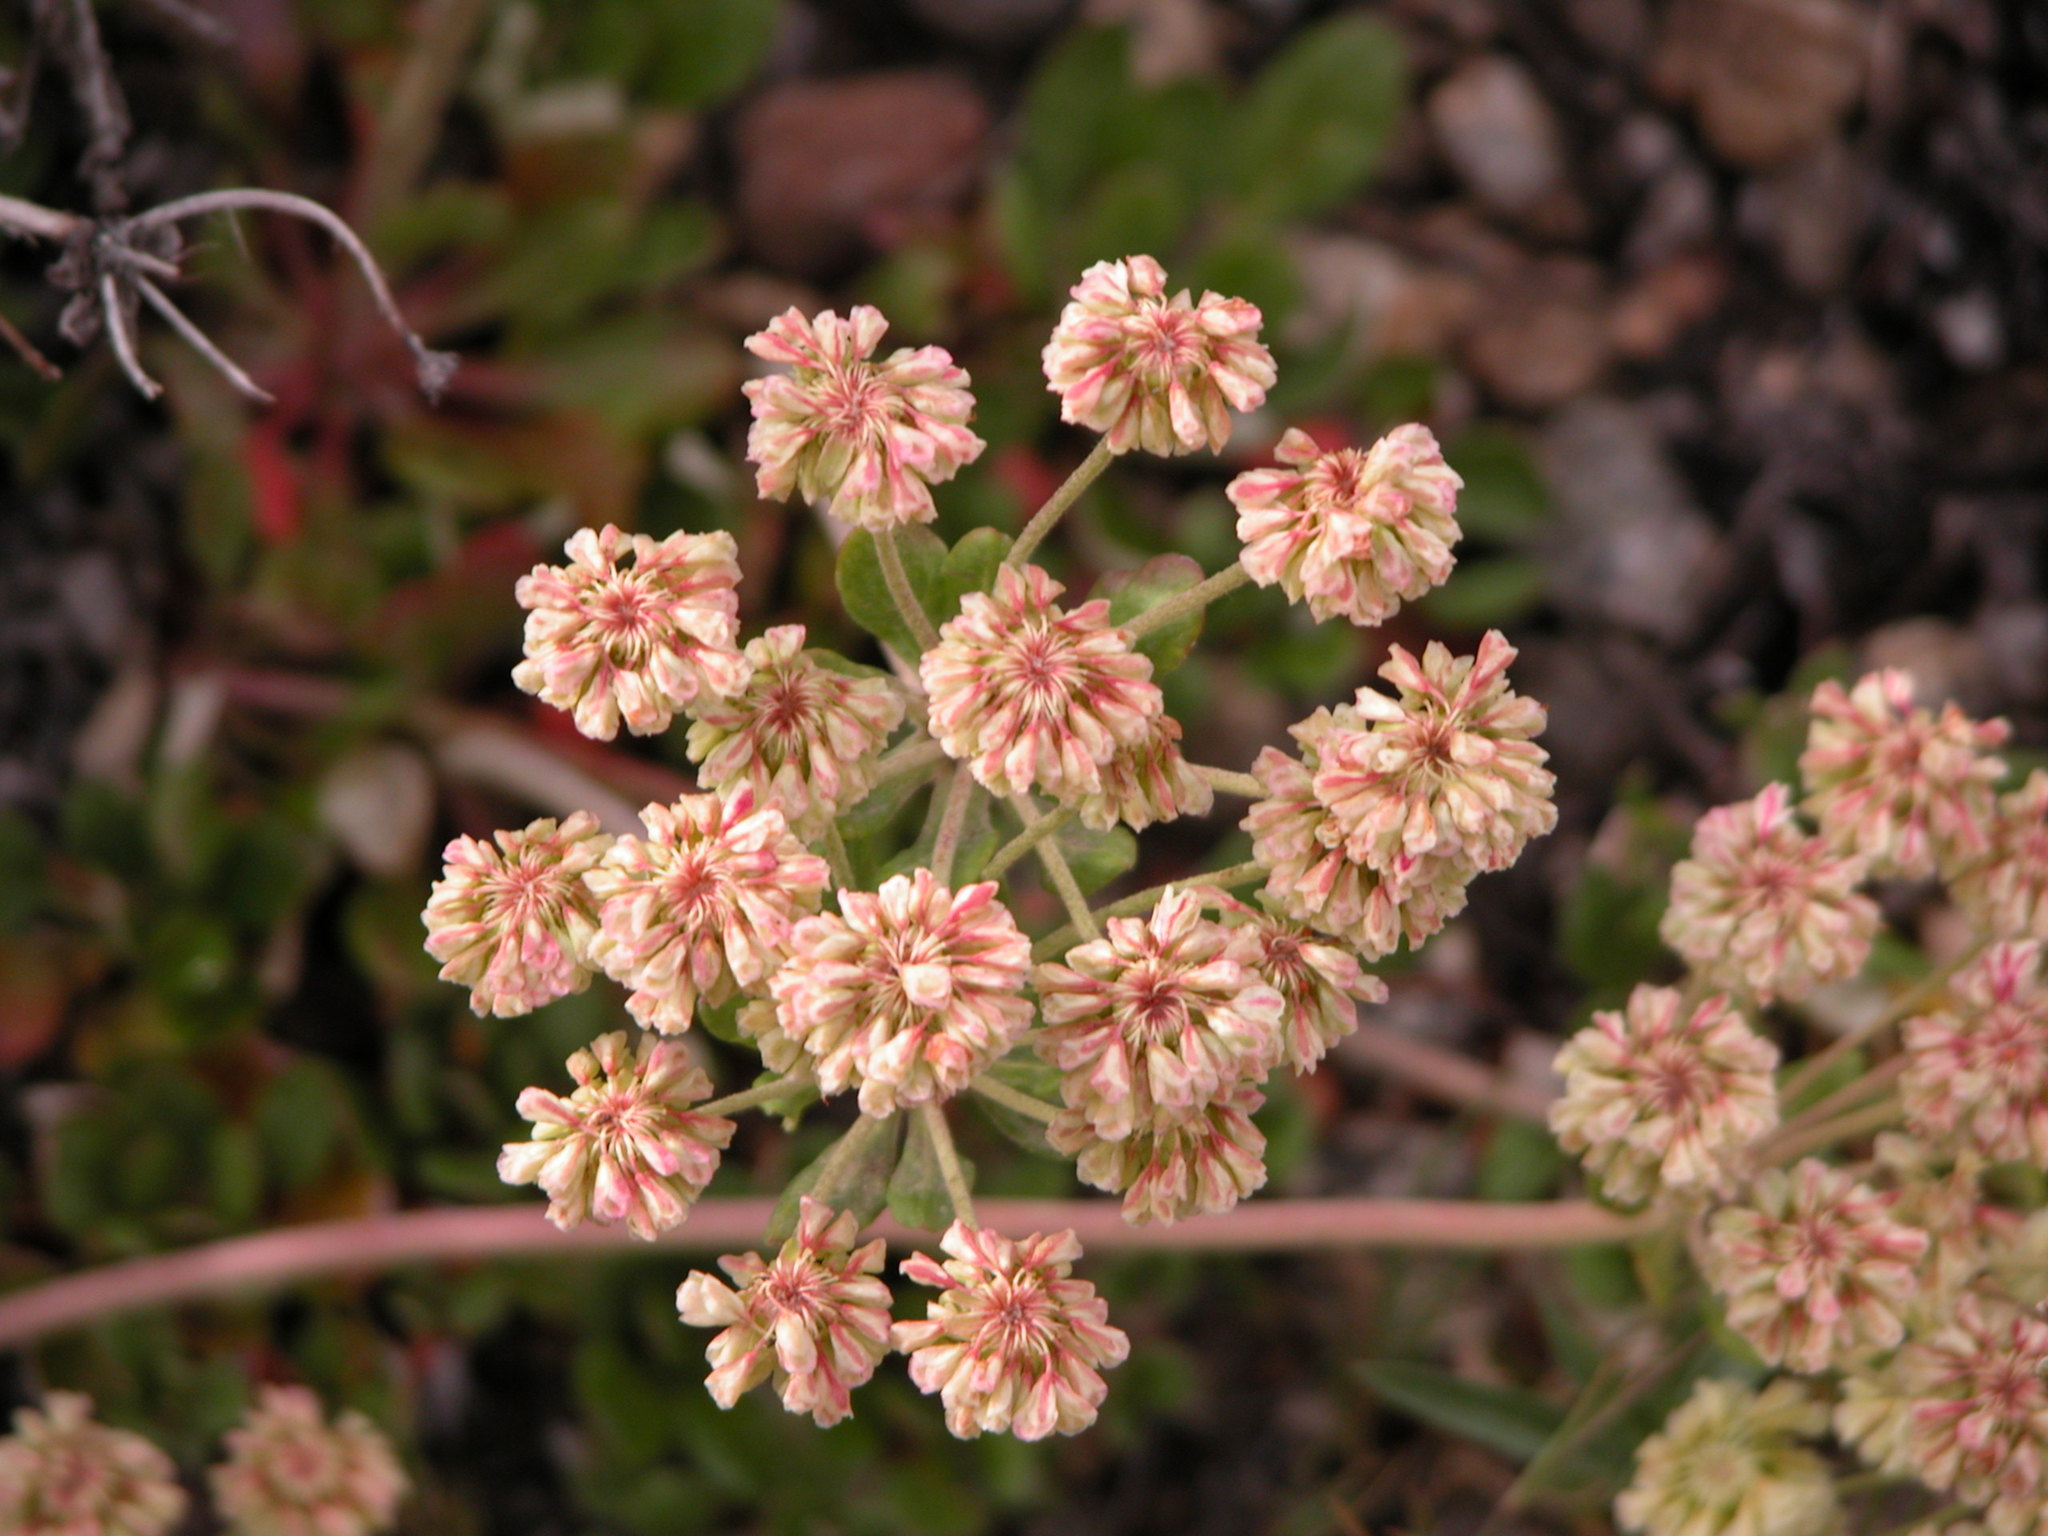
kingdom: Plantae
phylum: Tracheophyta
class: Magnoliopsida
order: Caryophyllales
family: Polygonaceae
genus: Eriogonum
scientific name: Eriogonum umbellatum
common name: Sulfur-buckwheat
